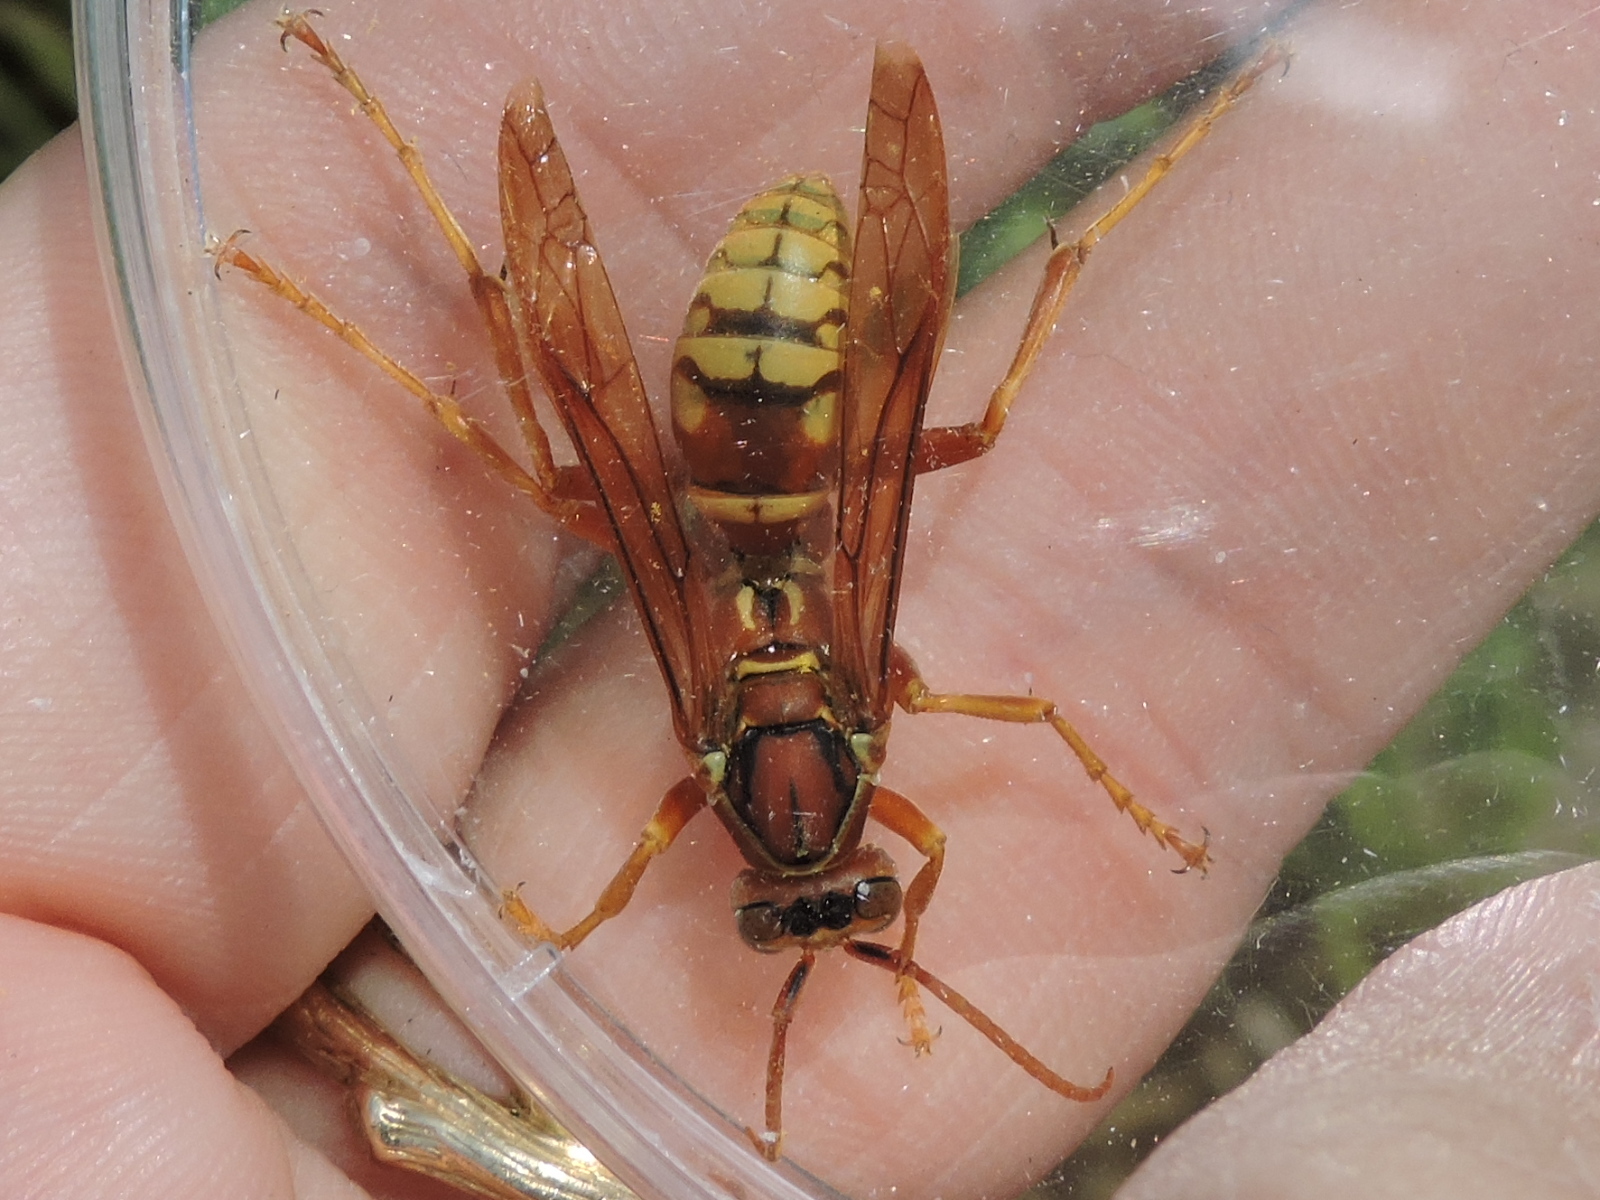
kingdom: Animalia
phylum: Arthropoda
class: Insecta
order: Hymenoptera
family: Eumenidae
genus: Polistes
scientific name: Polistes apachus
